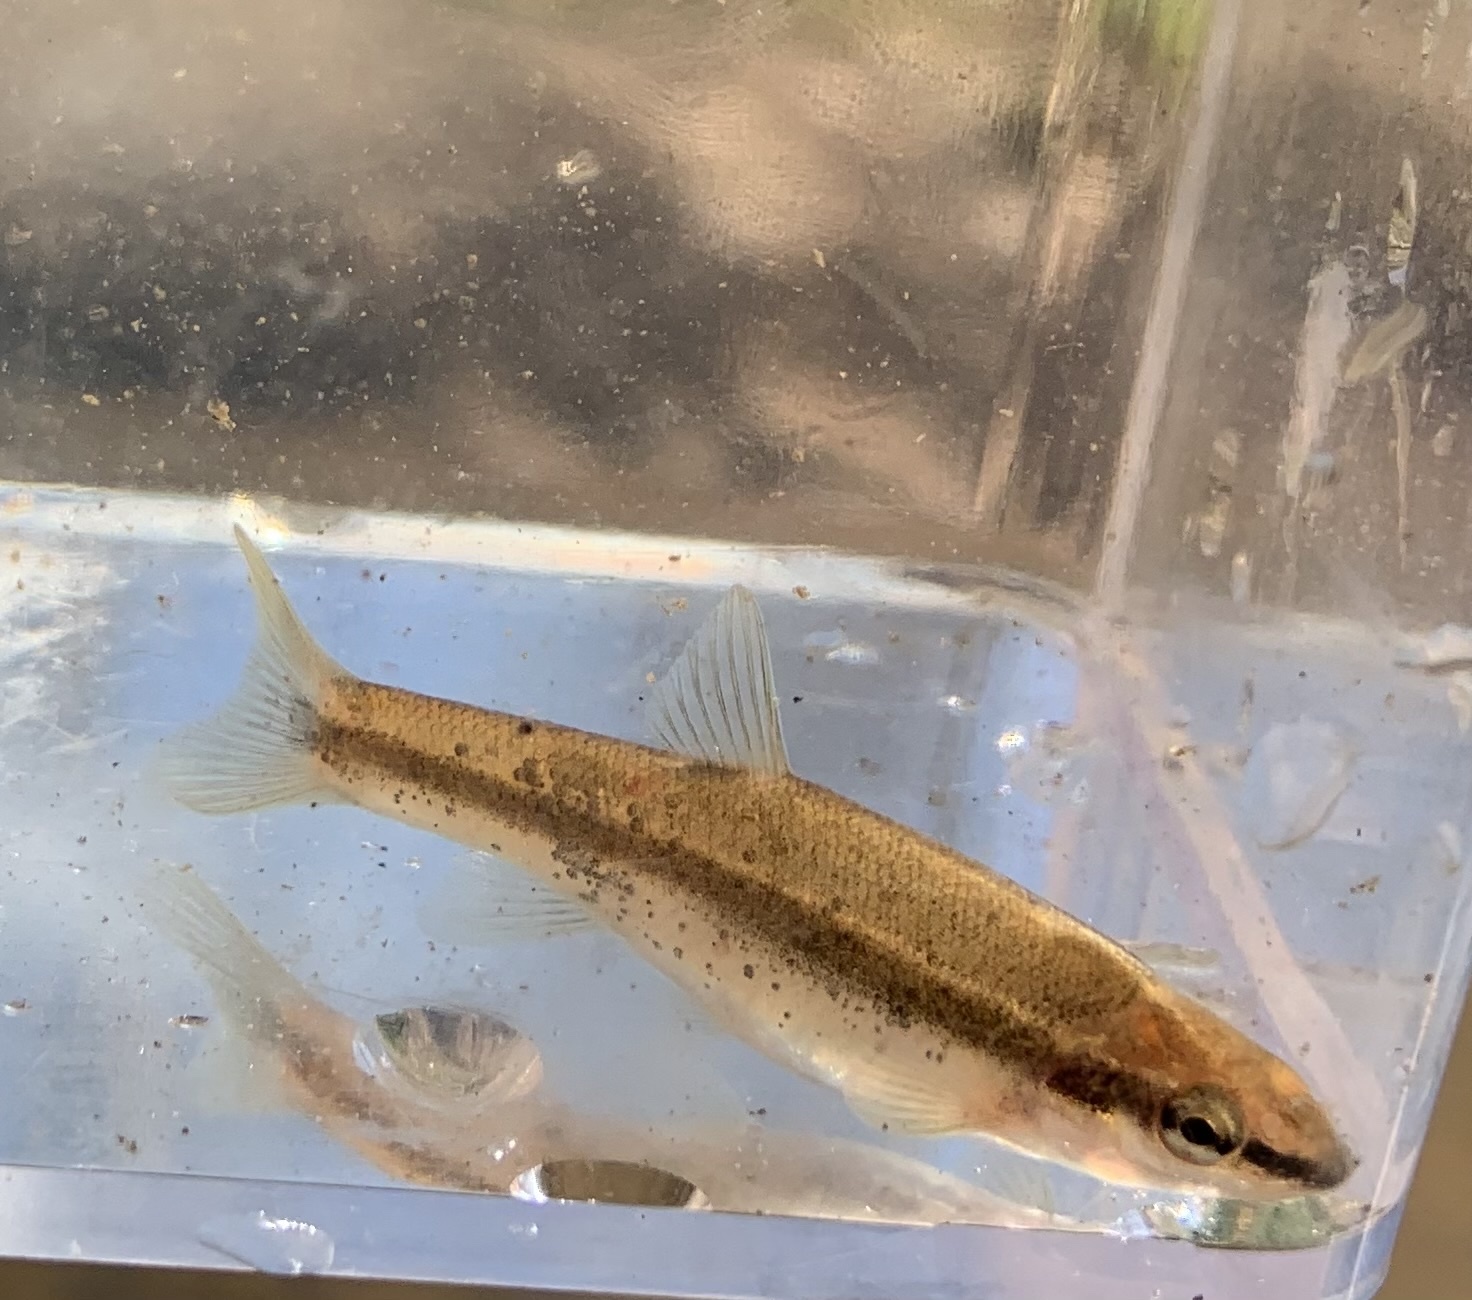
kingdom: Animalia
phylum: Chordata
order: Cypriniformes
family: Cyprinidae
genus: Rhinichthys
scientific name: Rhinichthys atratulus
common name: Eastern blacknose dace
